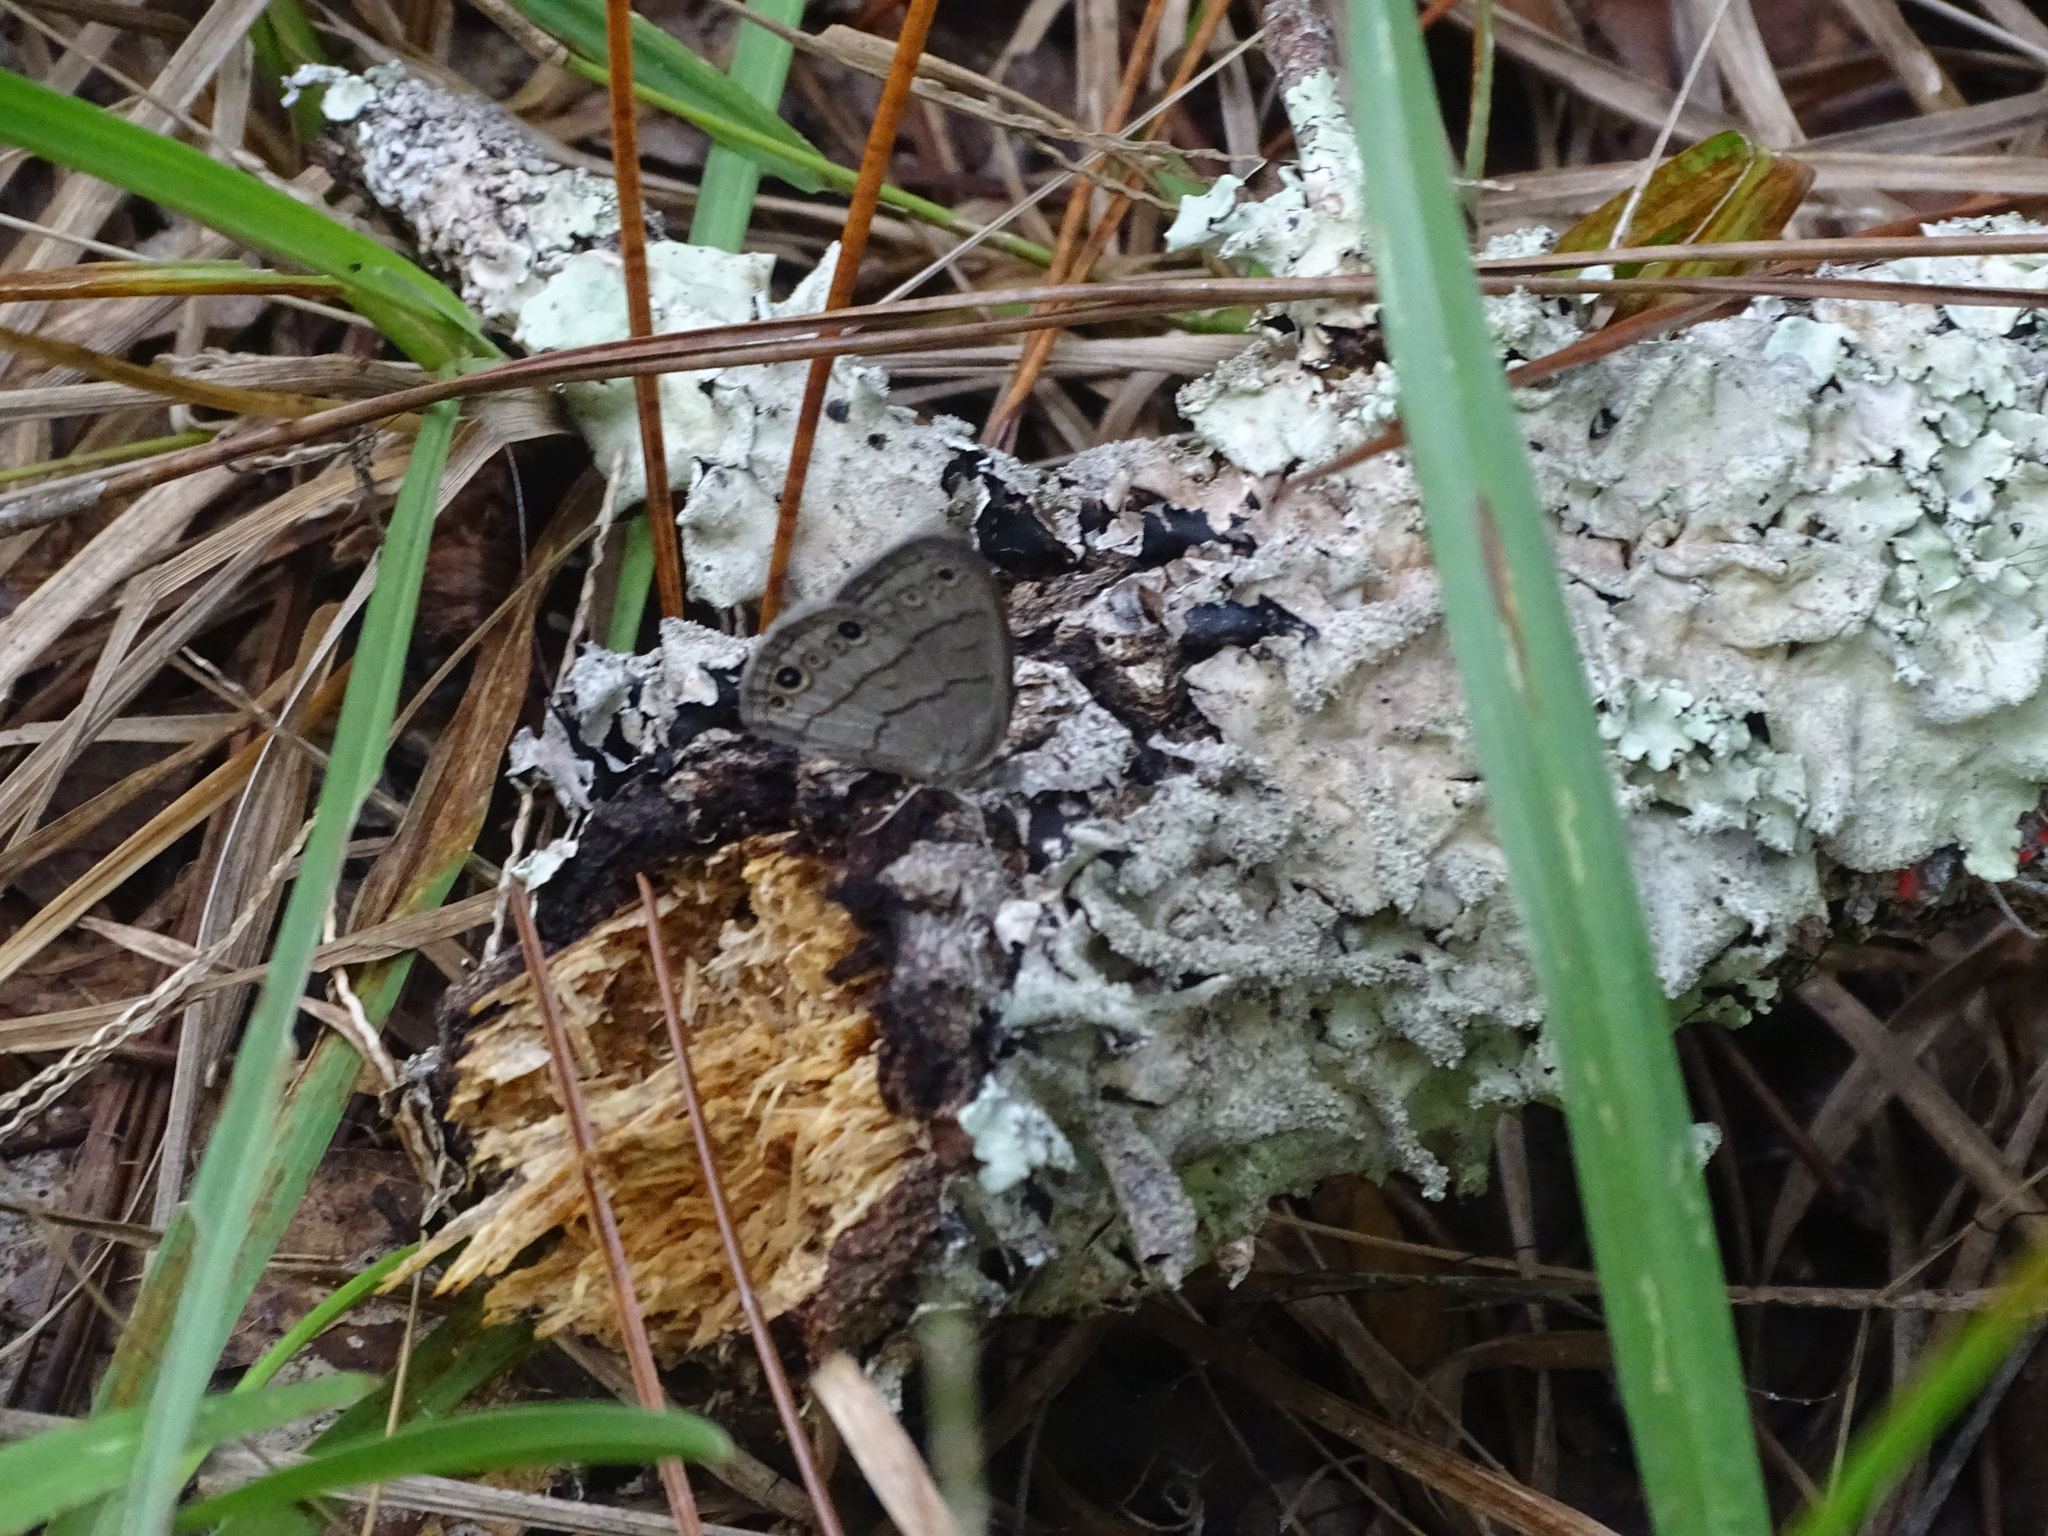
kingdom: Animalia
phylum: Arthropoda
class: Insecta
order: Lepidoptera
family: Nymphalidae
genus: Hermeuptychia
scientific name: Hermeuptychia hermes
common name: Hermes satyr
